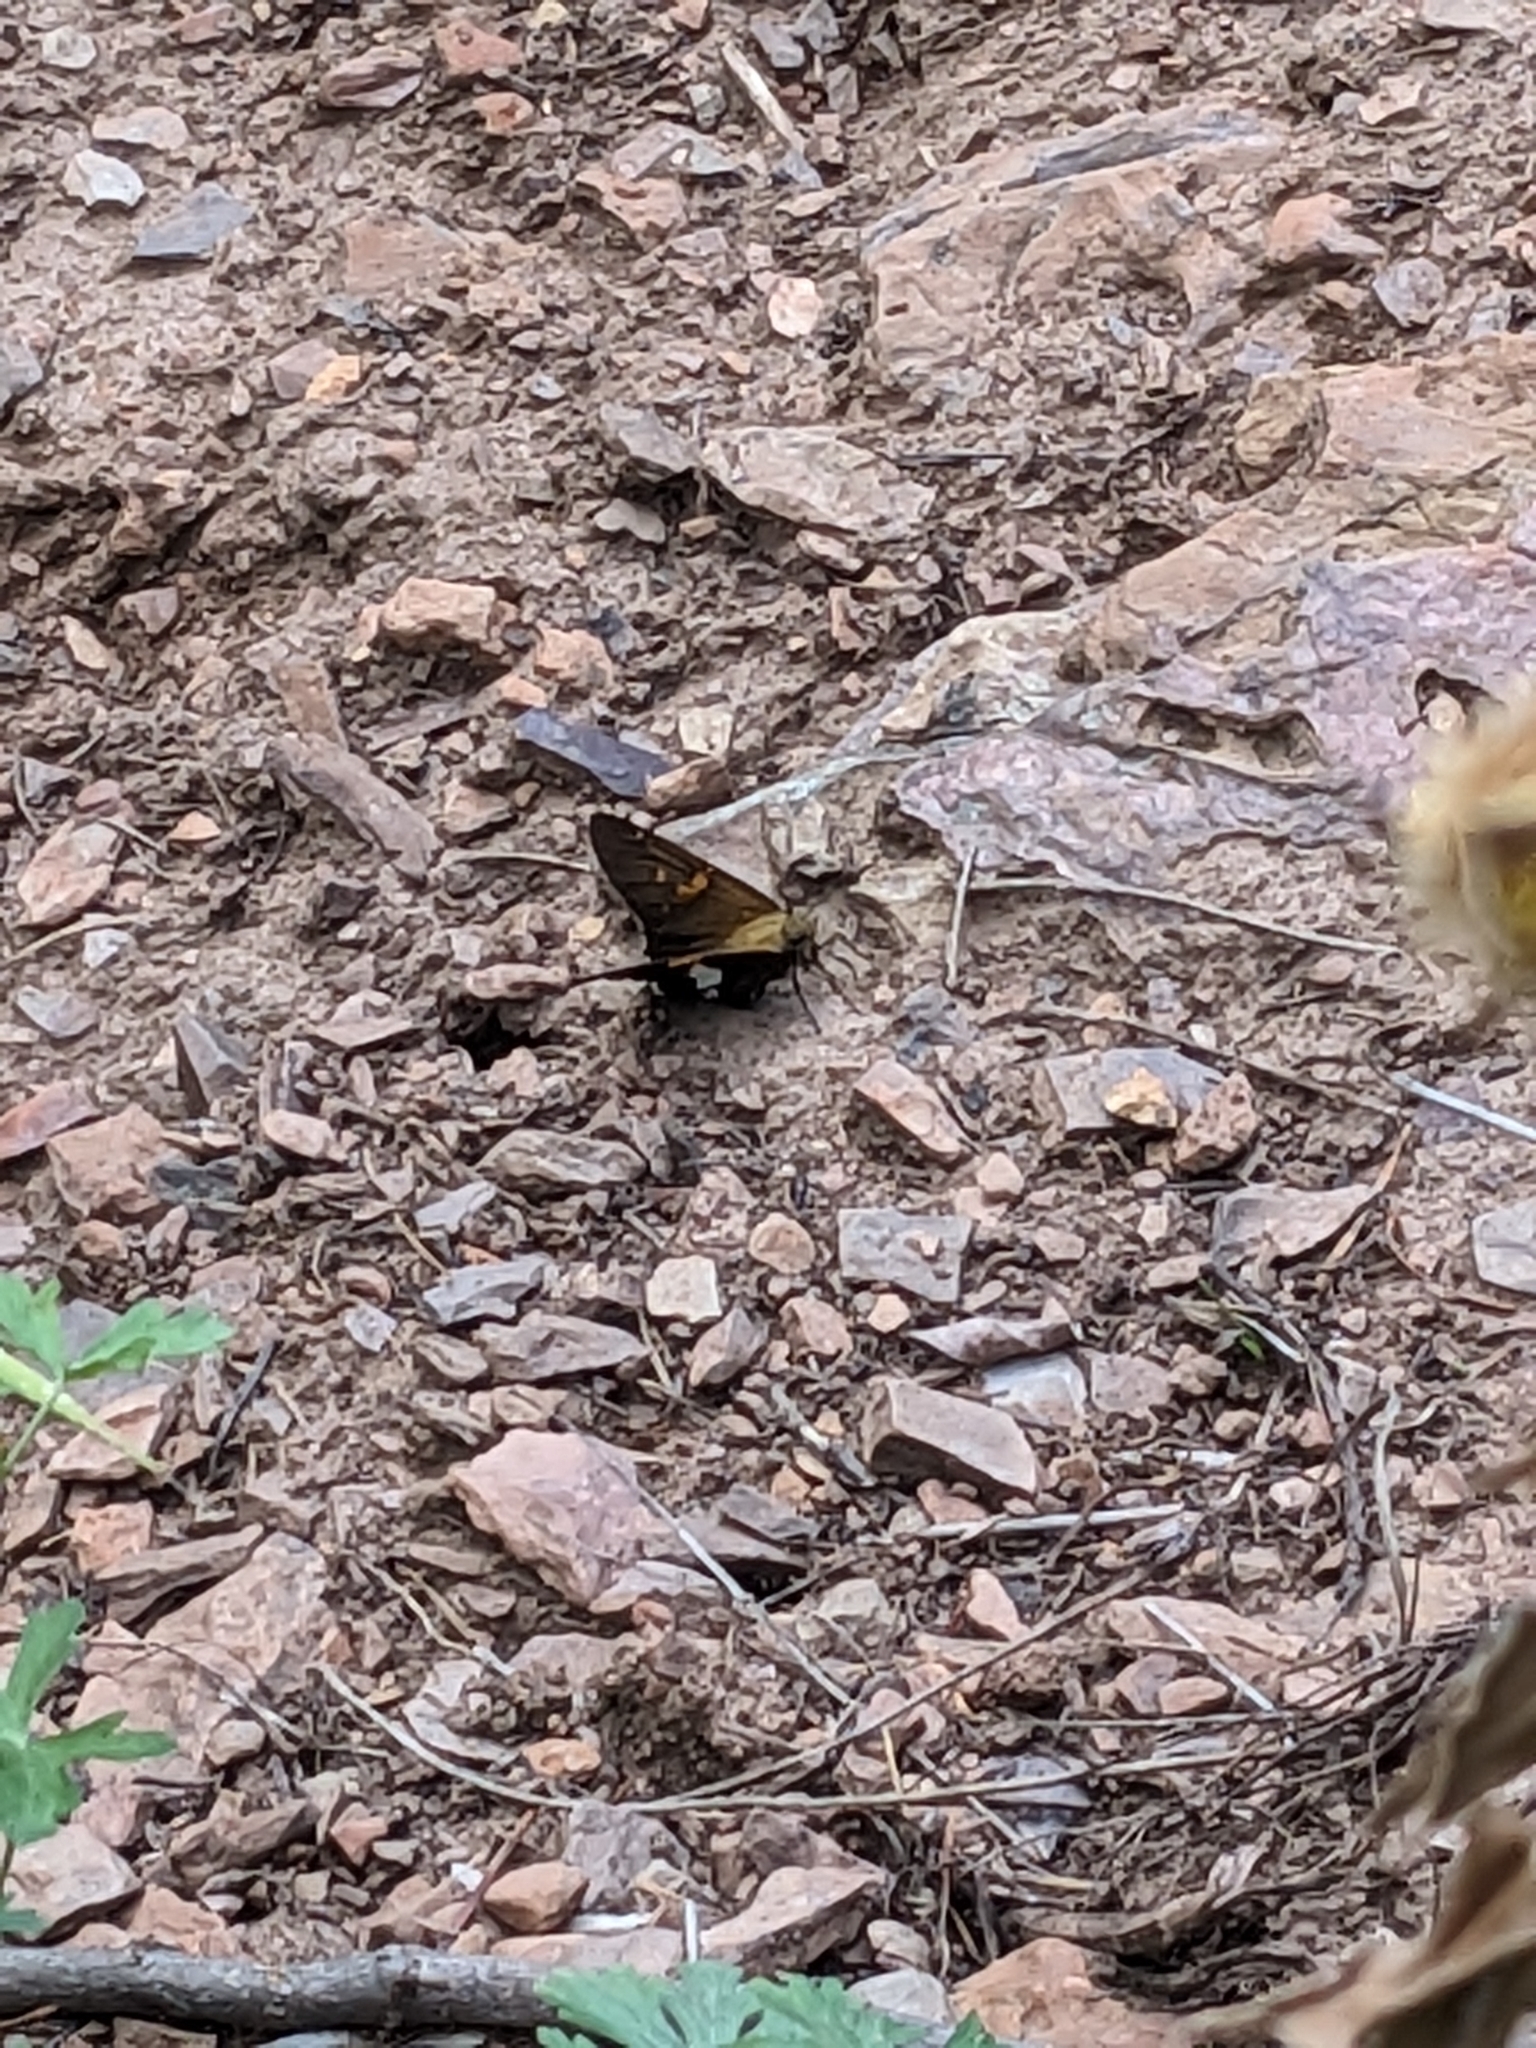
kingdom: Animalia
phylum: Arthropoda
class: Insecta
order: Lepidoptera
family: Hesperiidae
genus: Epargyreus
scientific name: Epargyreus clarus
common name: Silver-spotted skipper
